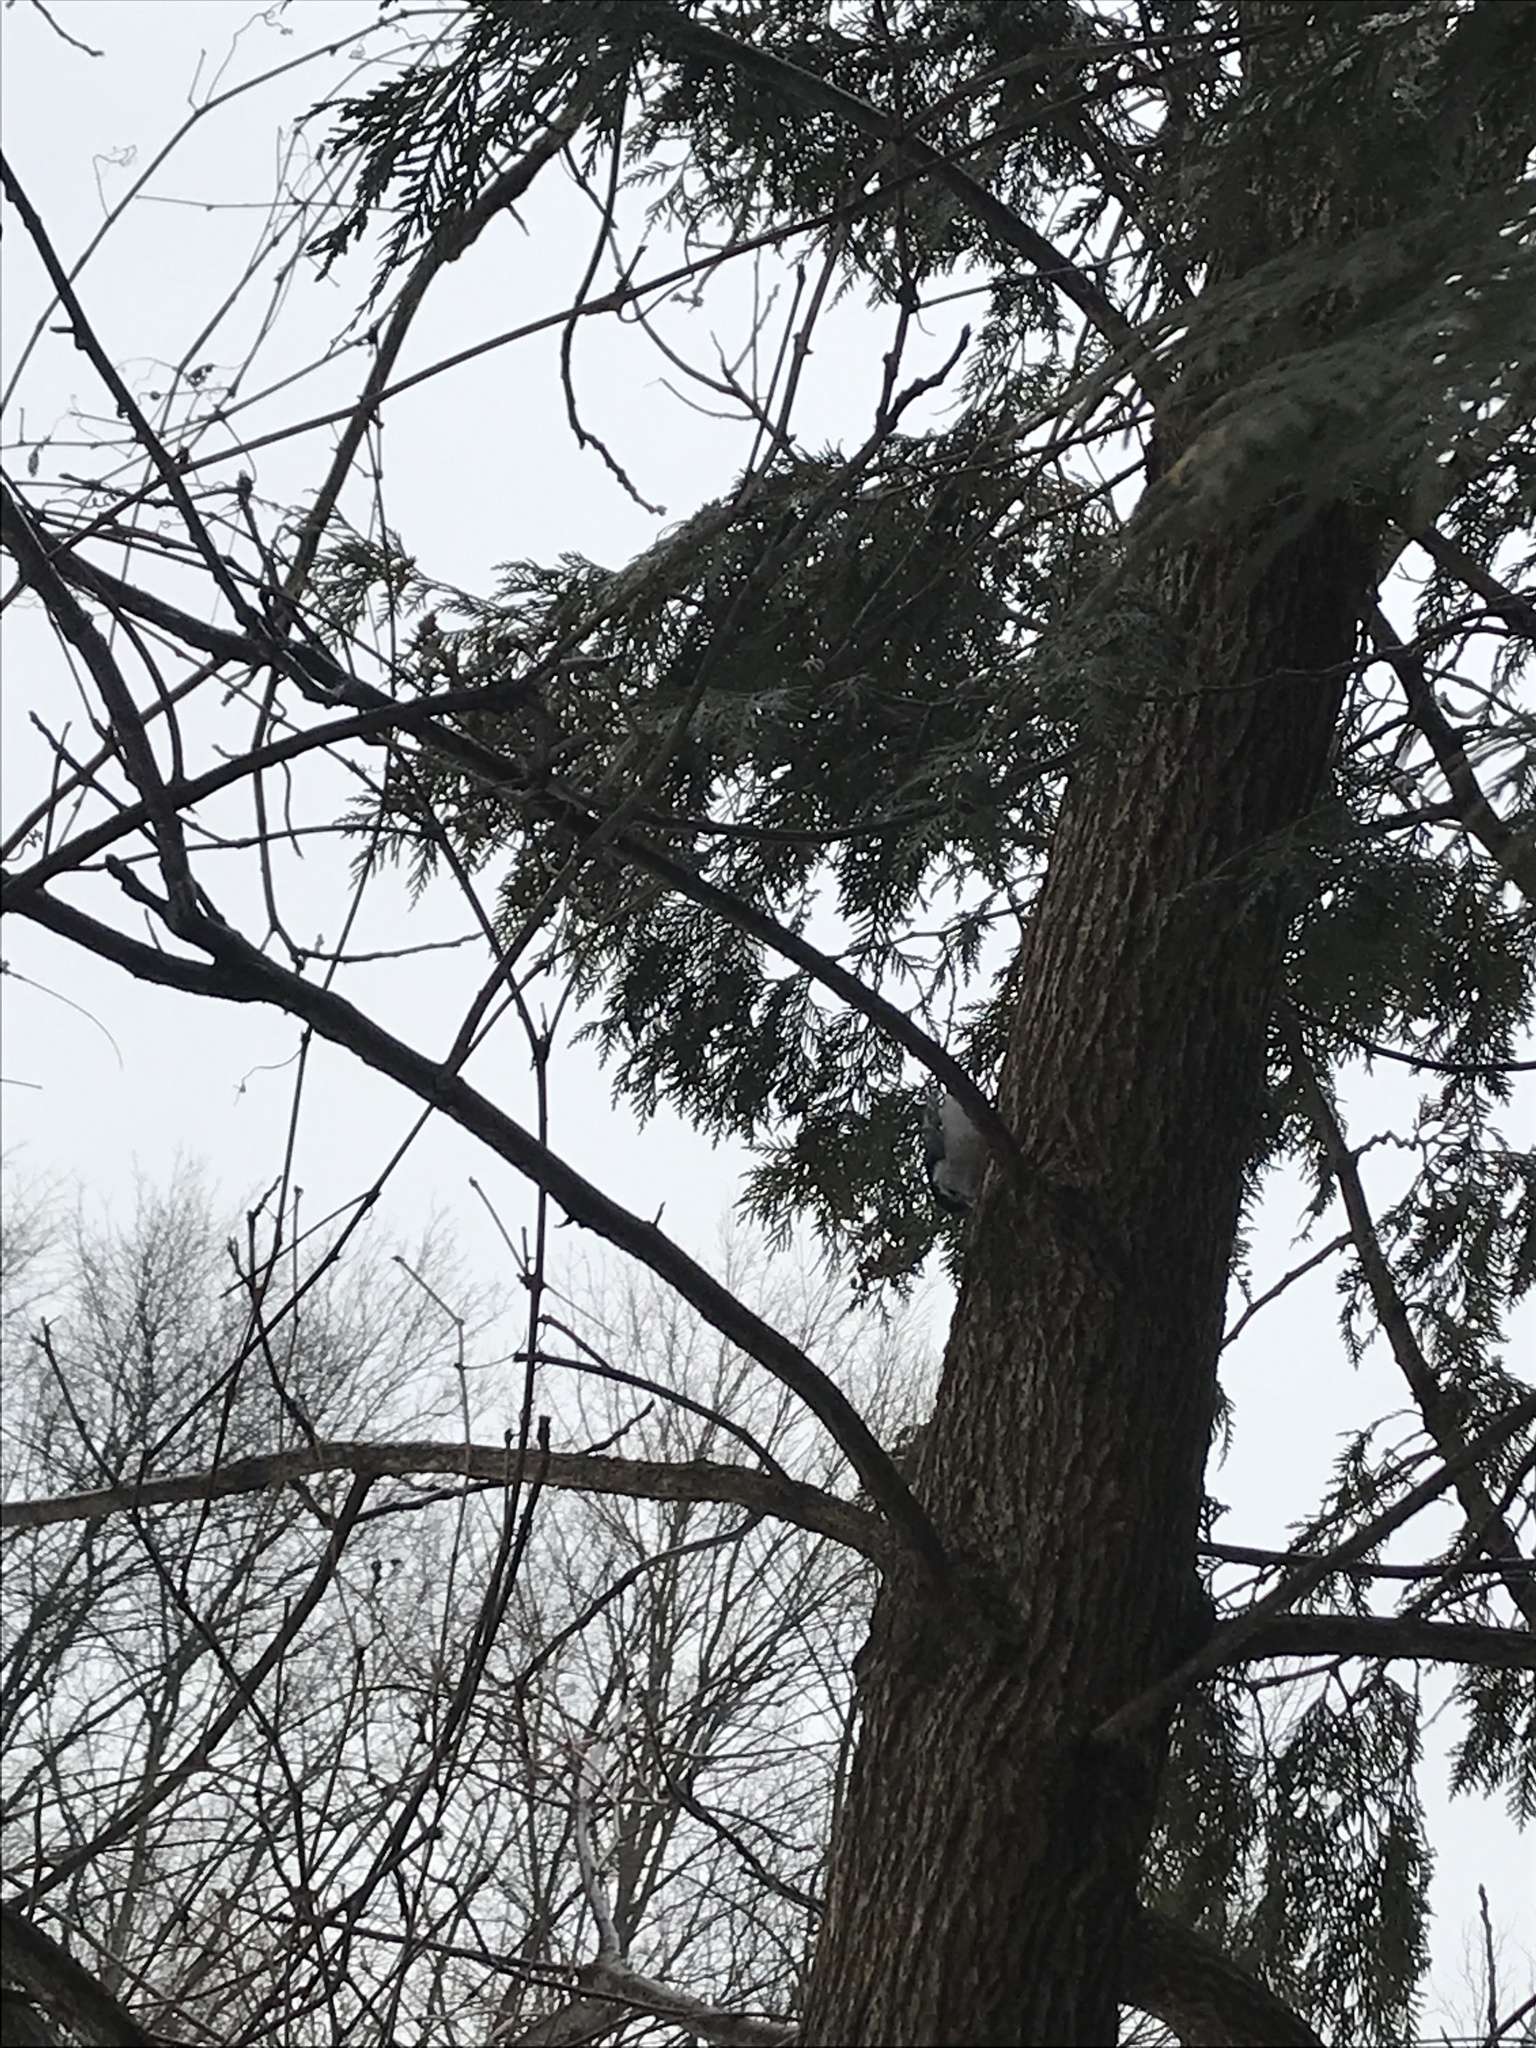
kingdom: Animalia
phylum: Chordata
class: Aves
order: Passeriformes
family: Sittidae
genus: Sitta
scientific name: Sitta carolinensis
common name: White-breasted nuthatch
